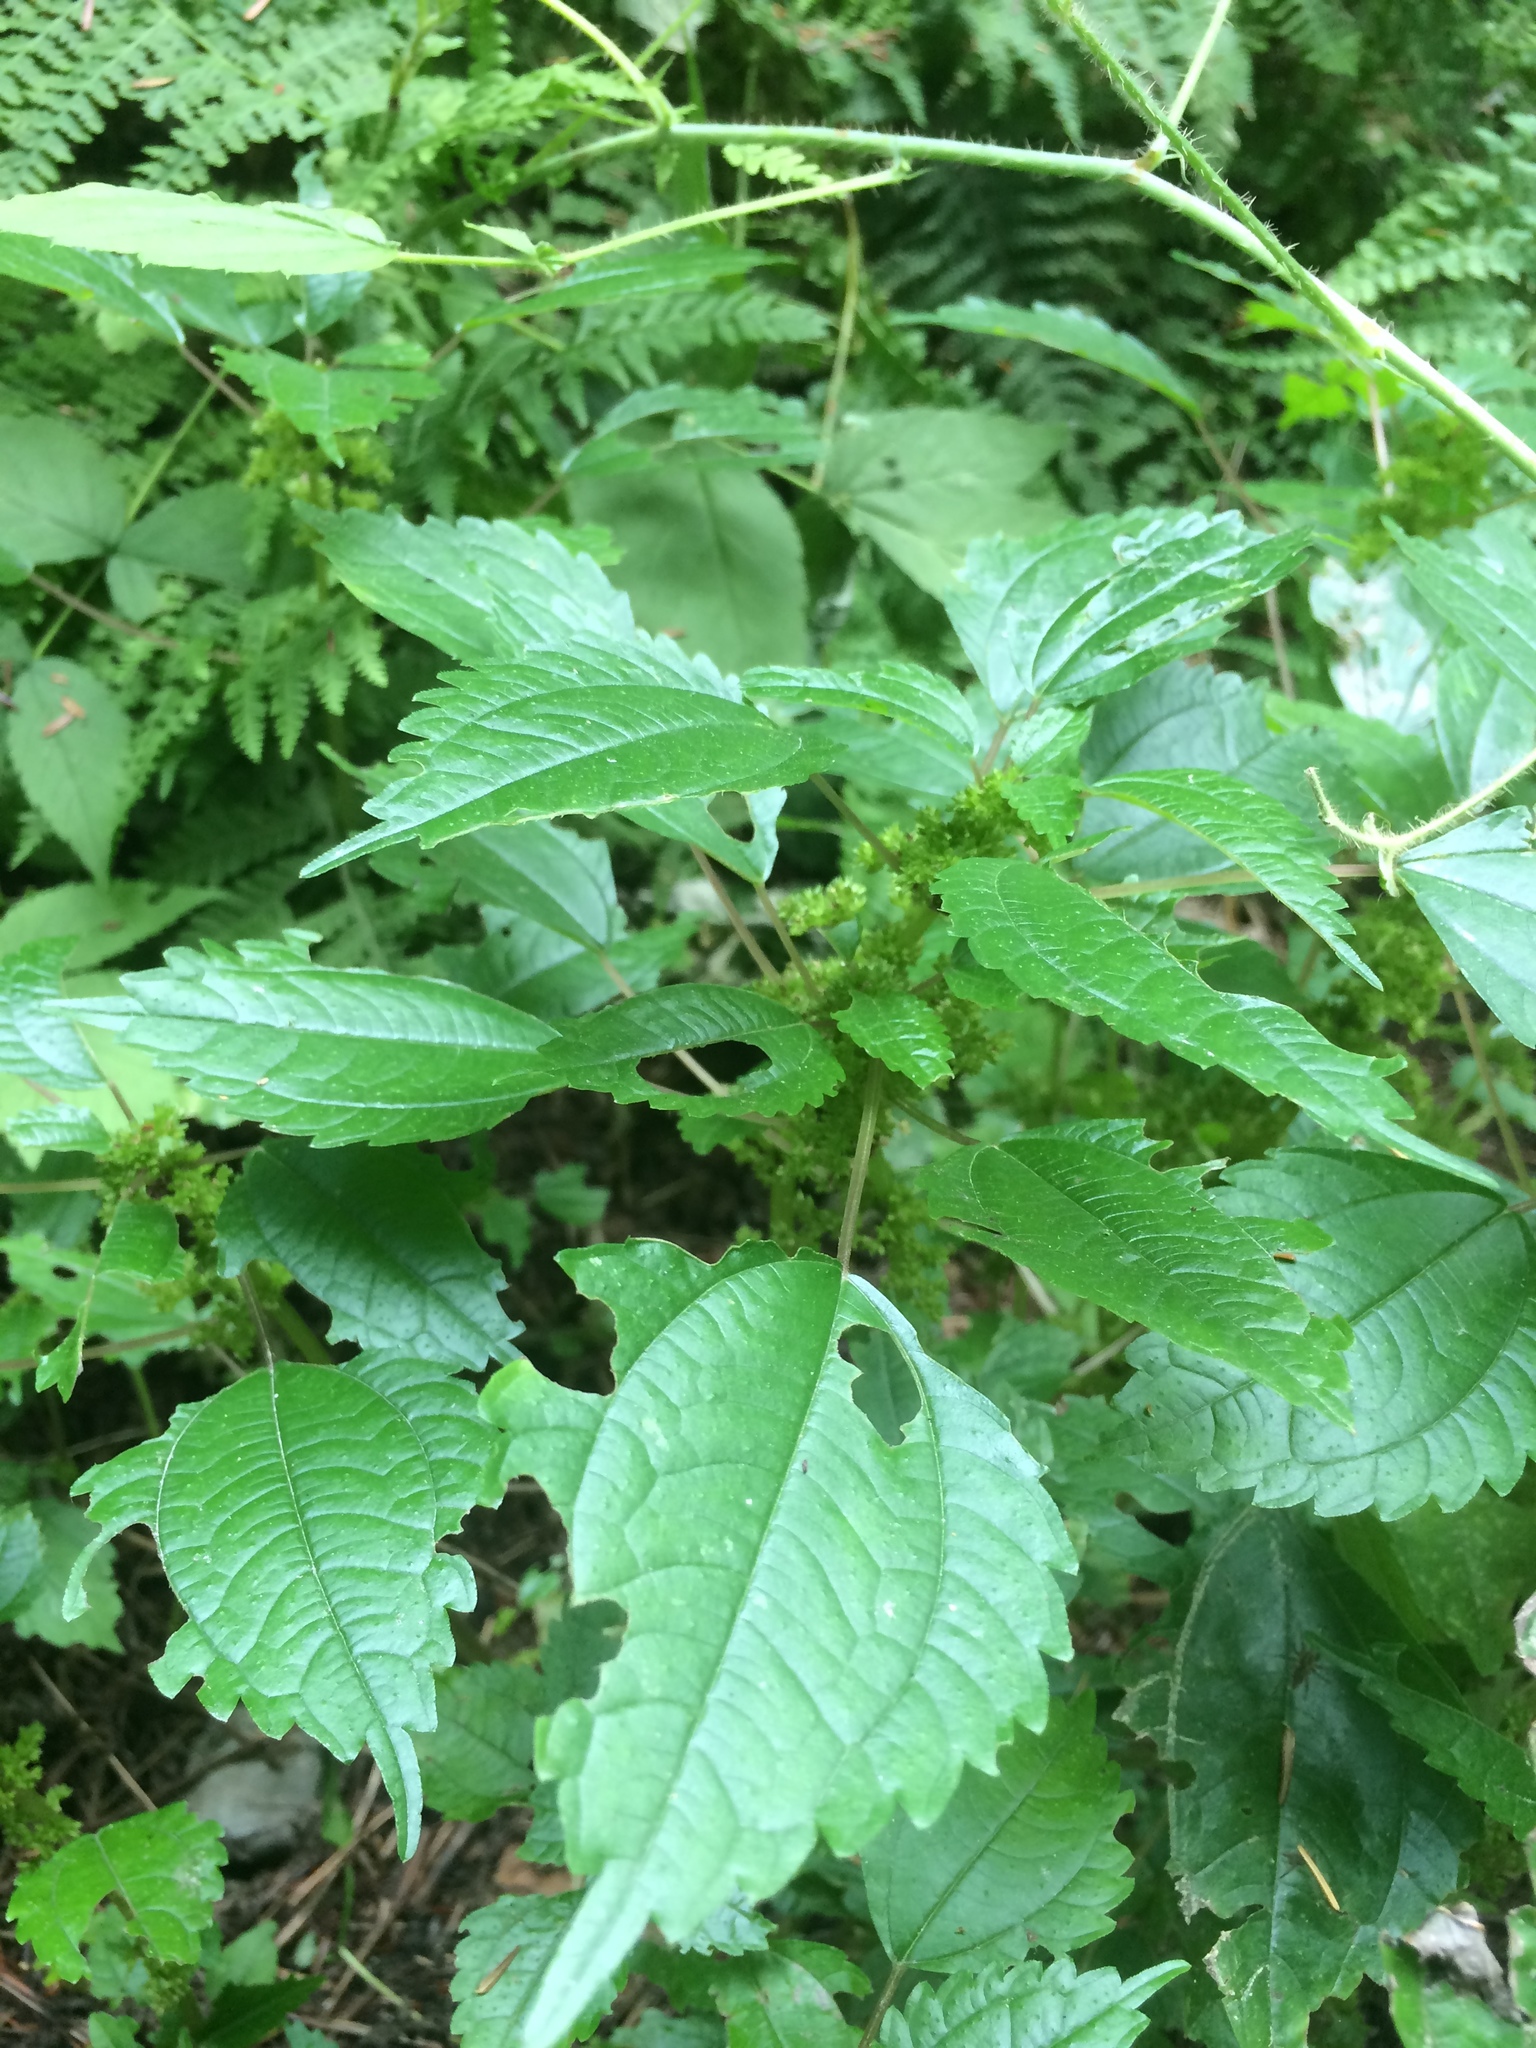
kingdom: Plantae
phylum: Tracheophyta
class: Magnoliopsida
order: Rosales
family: Urticaceae
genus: Pilea
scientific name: Pilea pumila
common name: Clearweed
